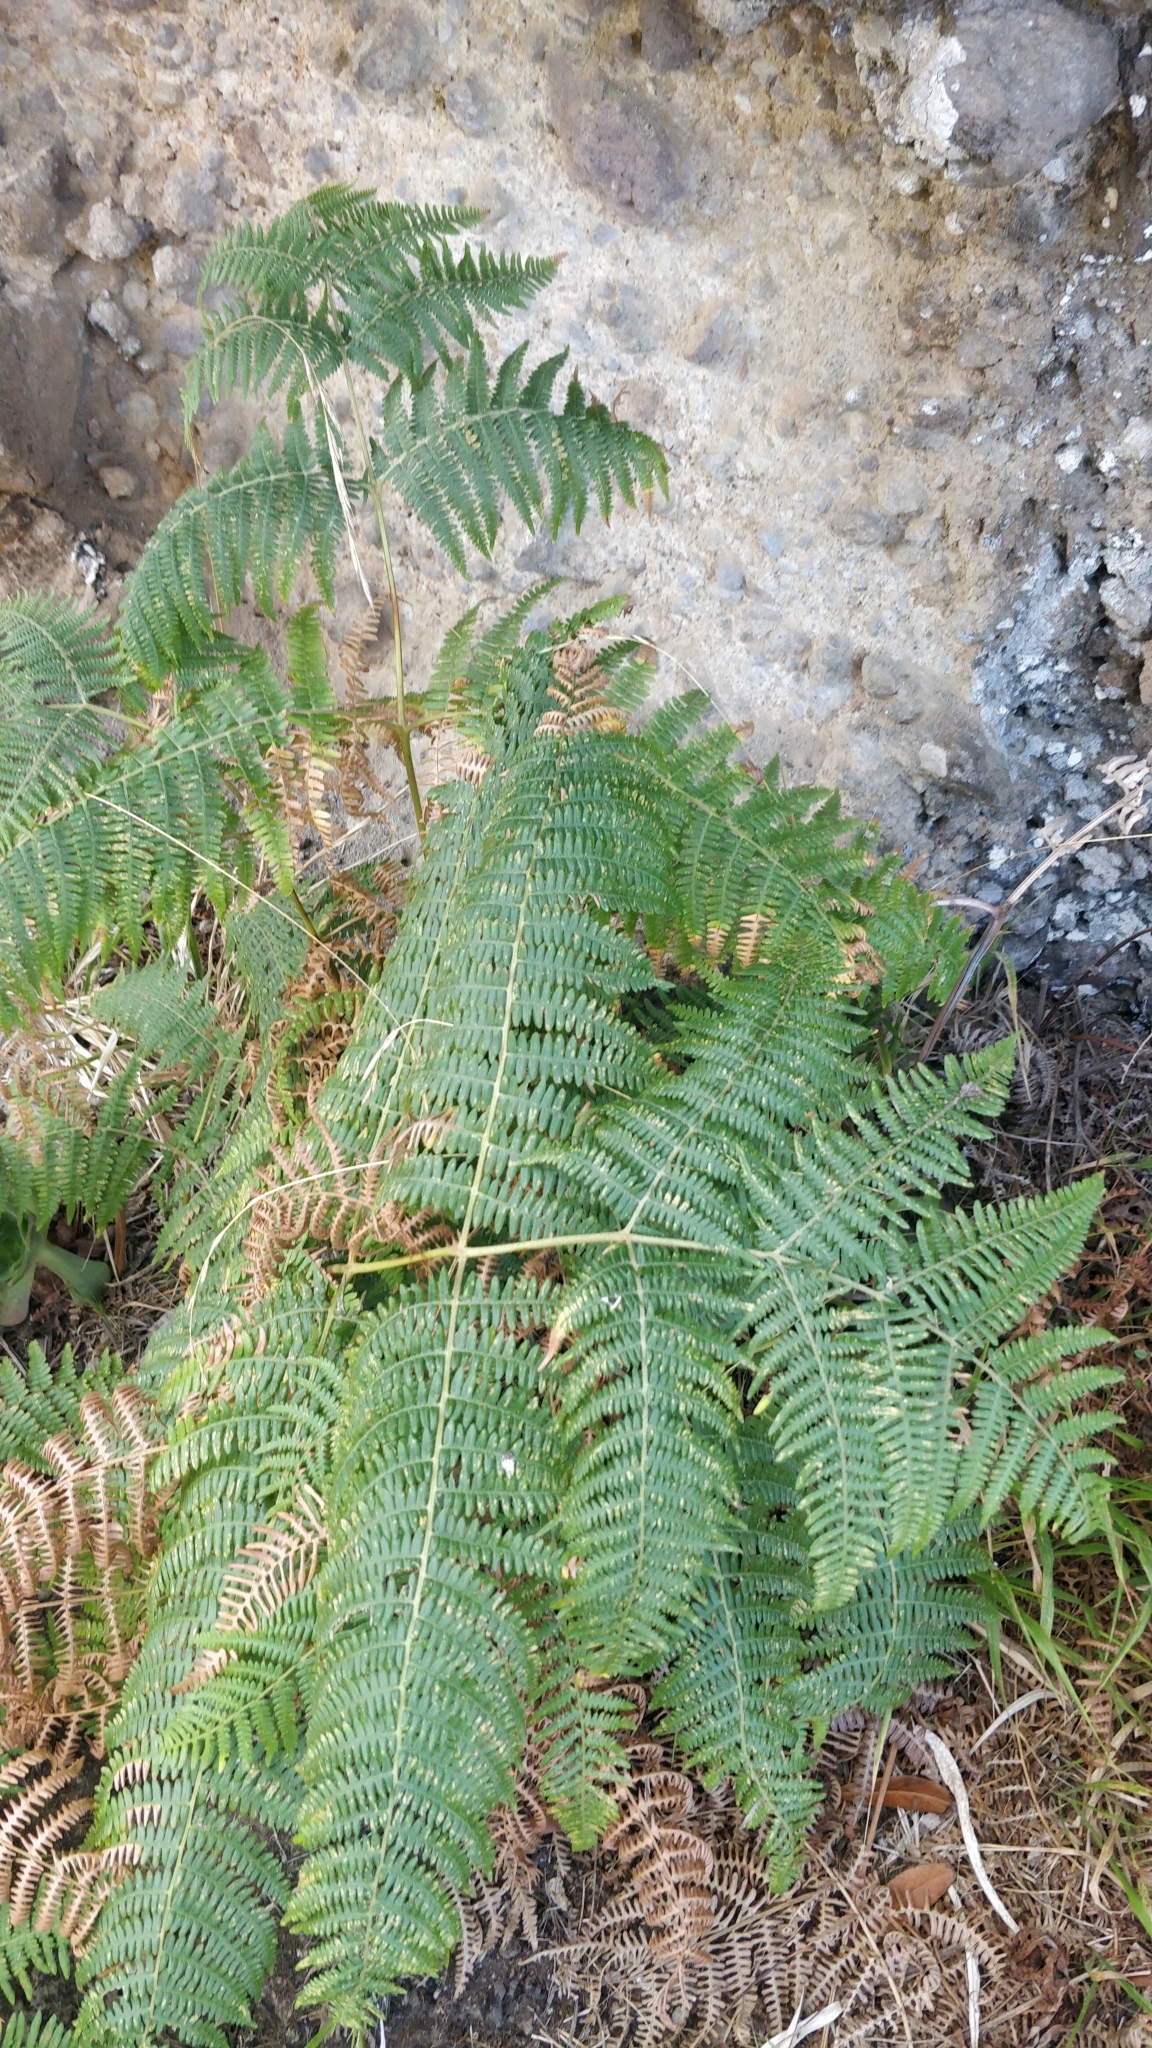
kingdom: Plantae
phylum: Tracheophyta
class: Polypodiopsida
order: Polypodiales
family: Dennstaedtiaceae
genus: Pteridium
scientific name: Pteridium aquilinum
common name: Bracken
